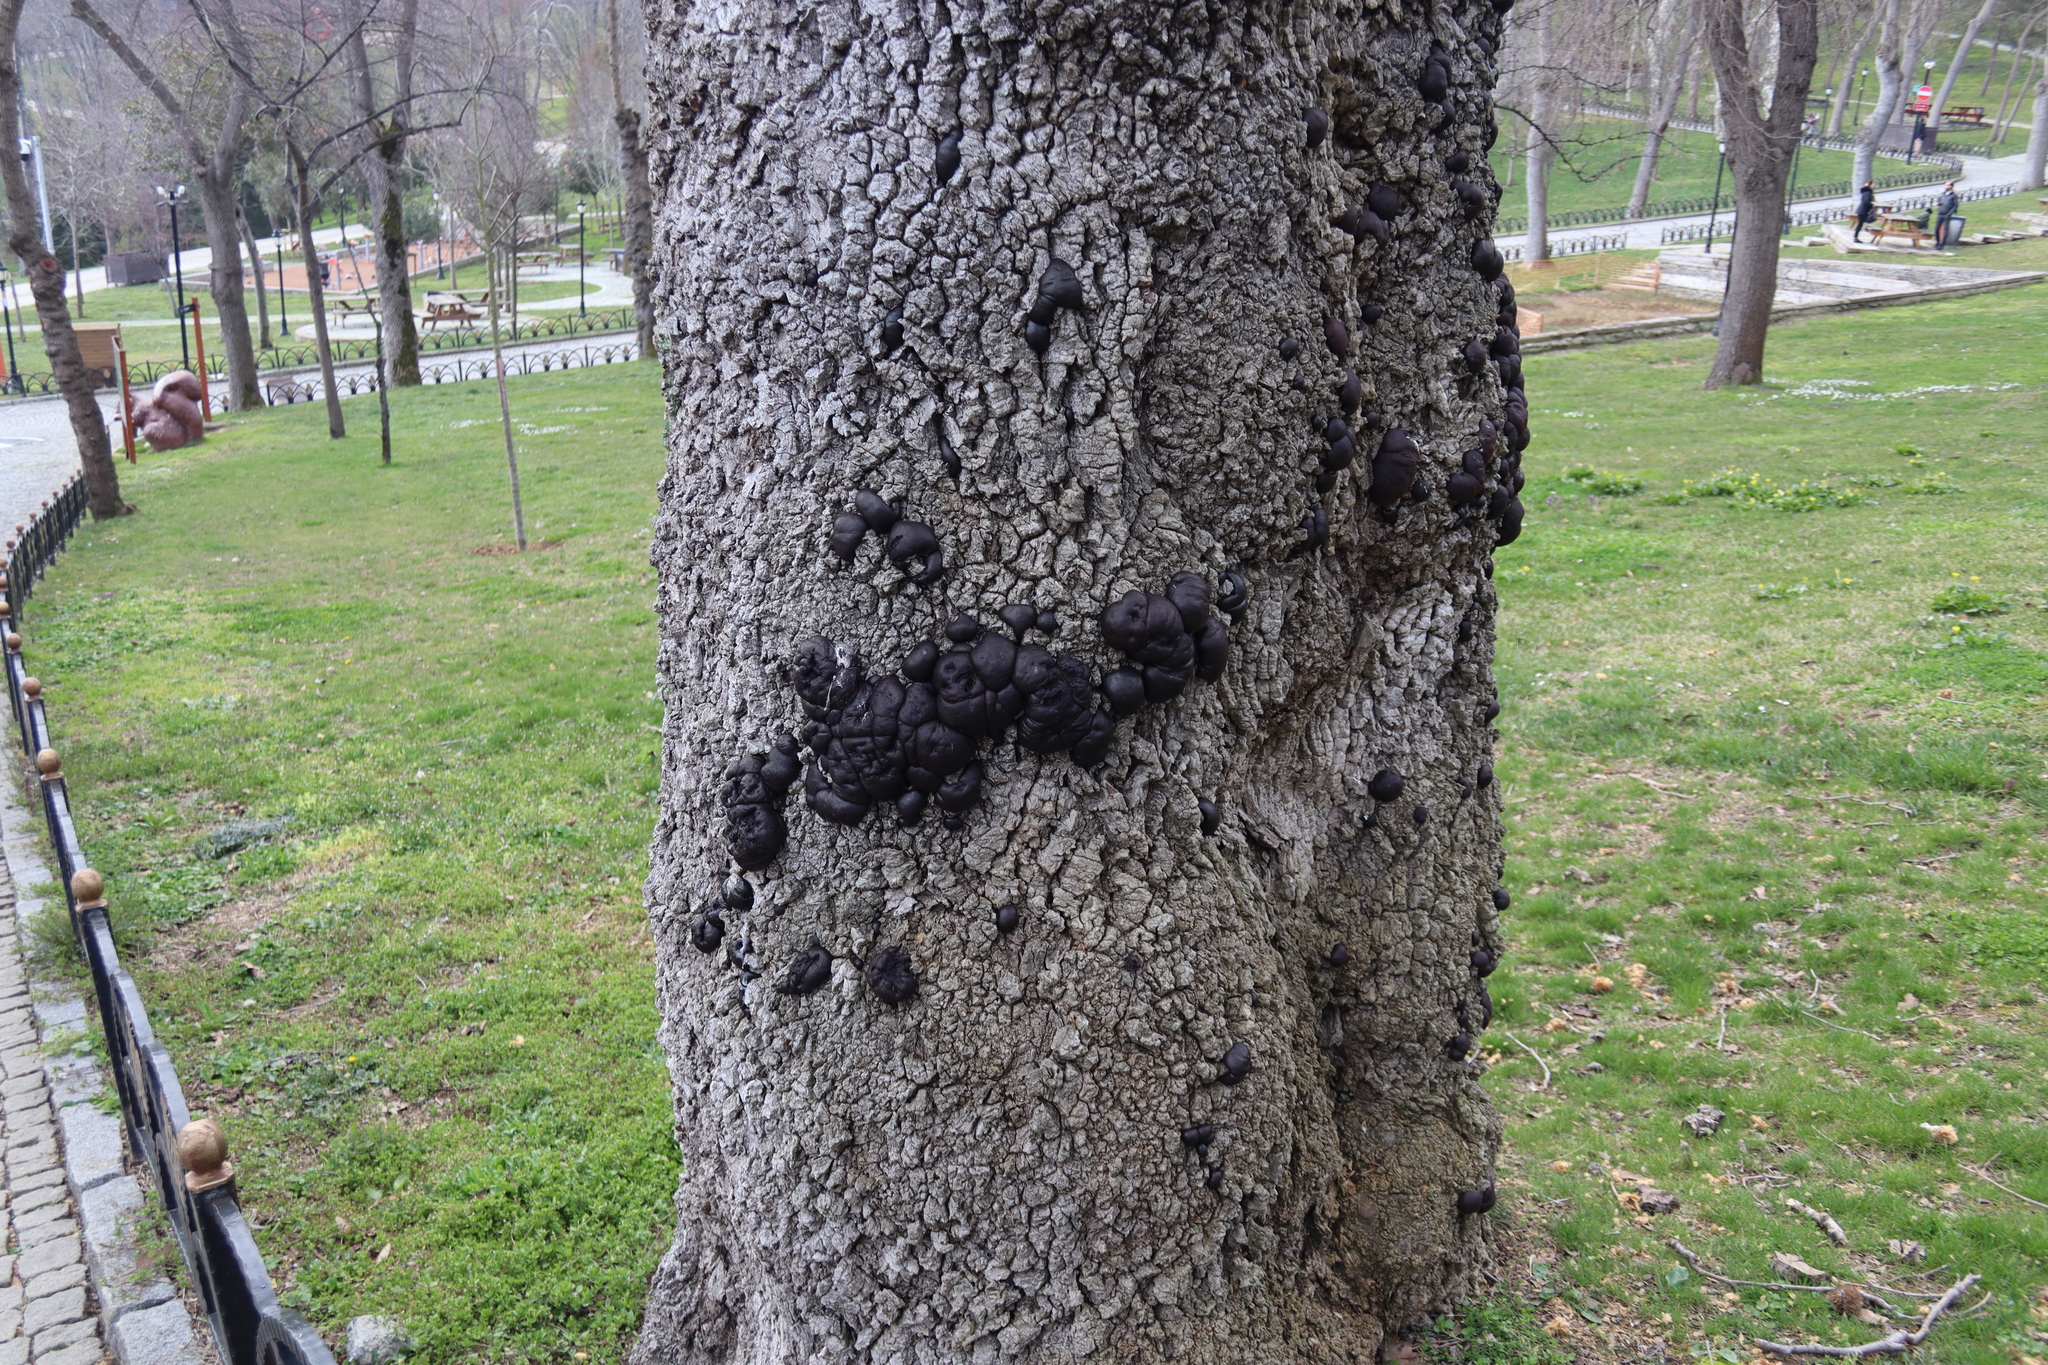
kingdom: Fungi
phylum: Ascomycota
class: Sordariomycetes
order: Xylariales
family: Hypoxylaceae
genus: Daldinia
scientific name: Daldinia concentrica
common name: Cramp balls
